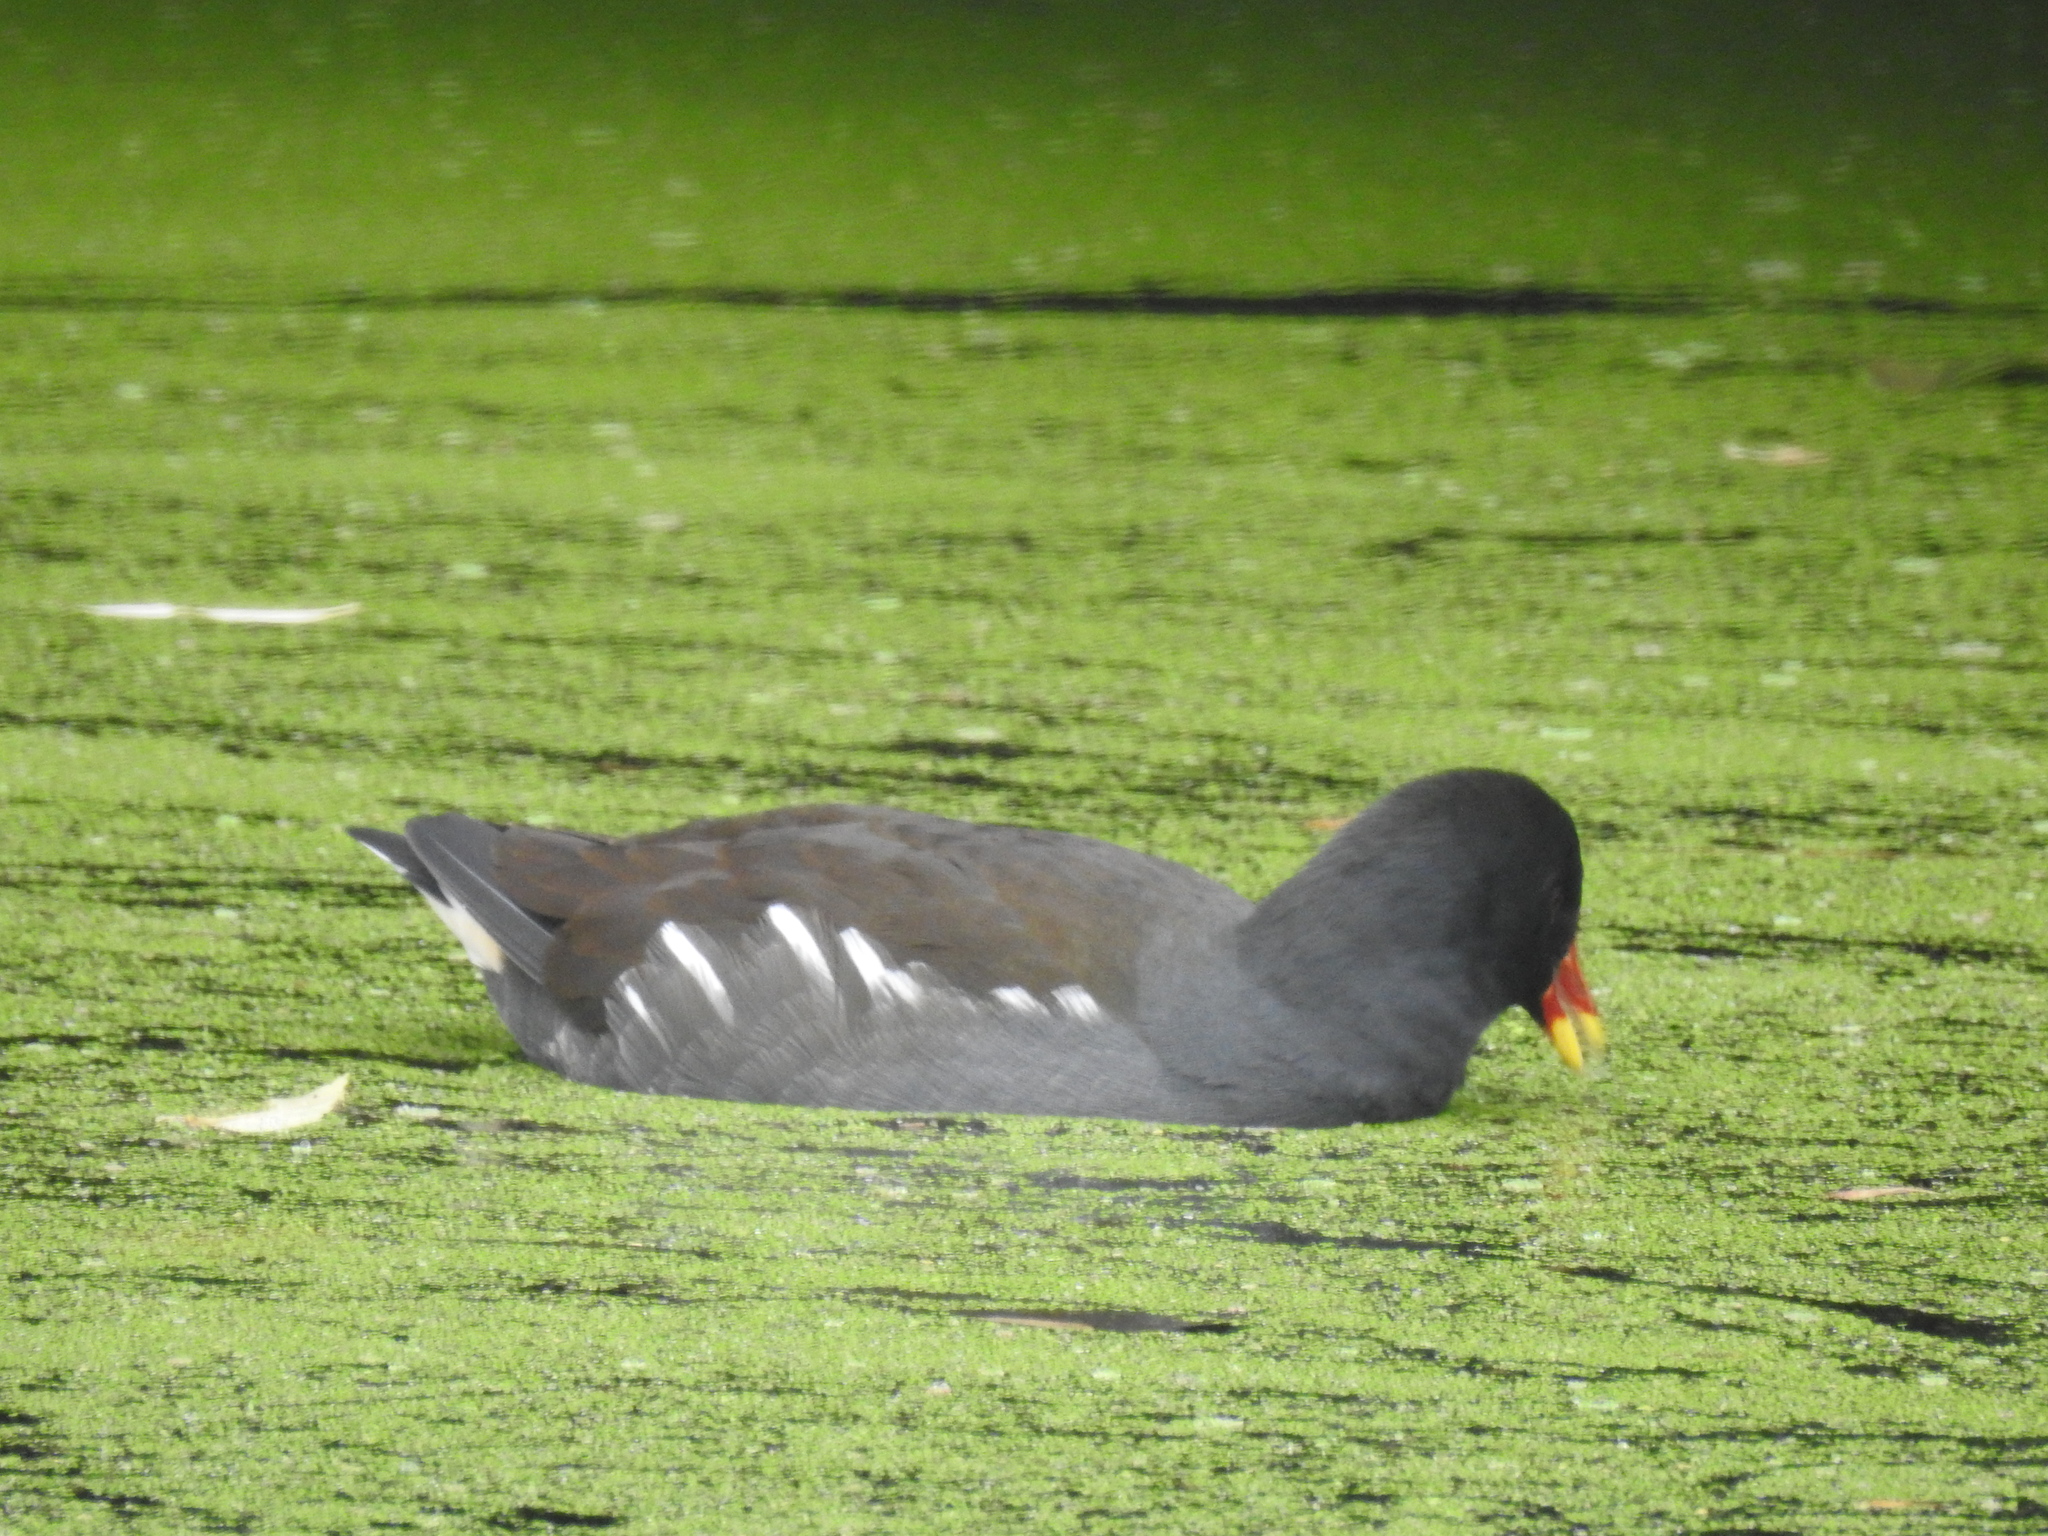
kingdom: Animalia
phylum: Chordata
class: Aves
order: Gruiformes
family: Rallidae
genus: Gallinula
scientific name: Gallinula chloropus
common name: Common moorhen
